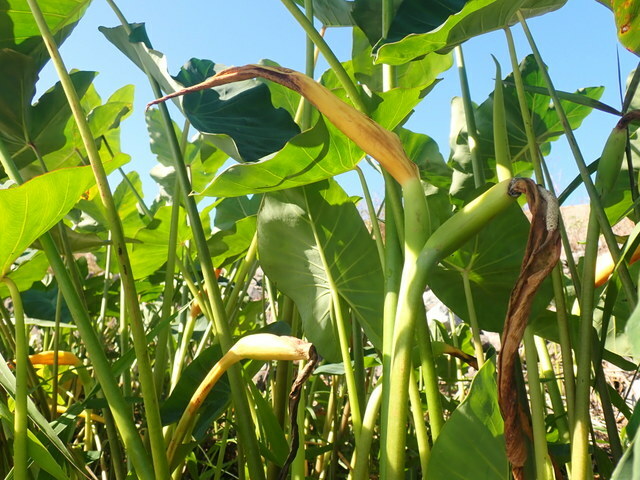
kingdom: Plantae
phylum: Tracheophyta
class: Liliopsida
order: Alismatales
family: Araceae
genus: Colocasia
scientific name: Colocasia esculenta
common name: Taro
